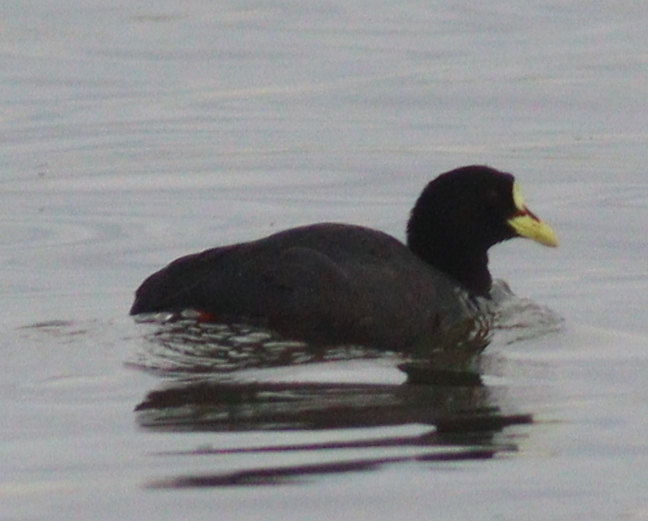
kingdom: Animalia
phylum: Chordata
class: Aves
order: Gruiformes
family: Rallidae
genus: Fulica
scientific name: Fulica armillata
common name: Red-gartered coot
